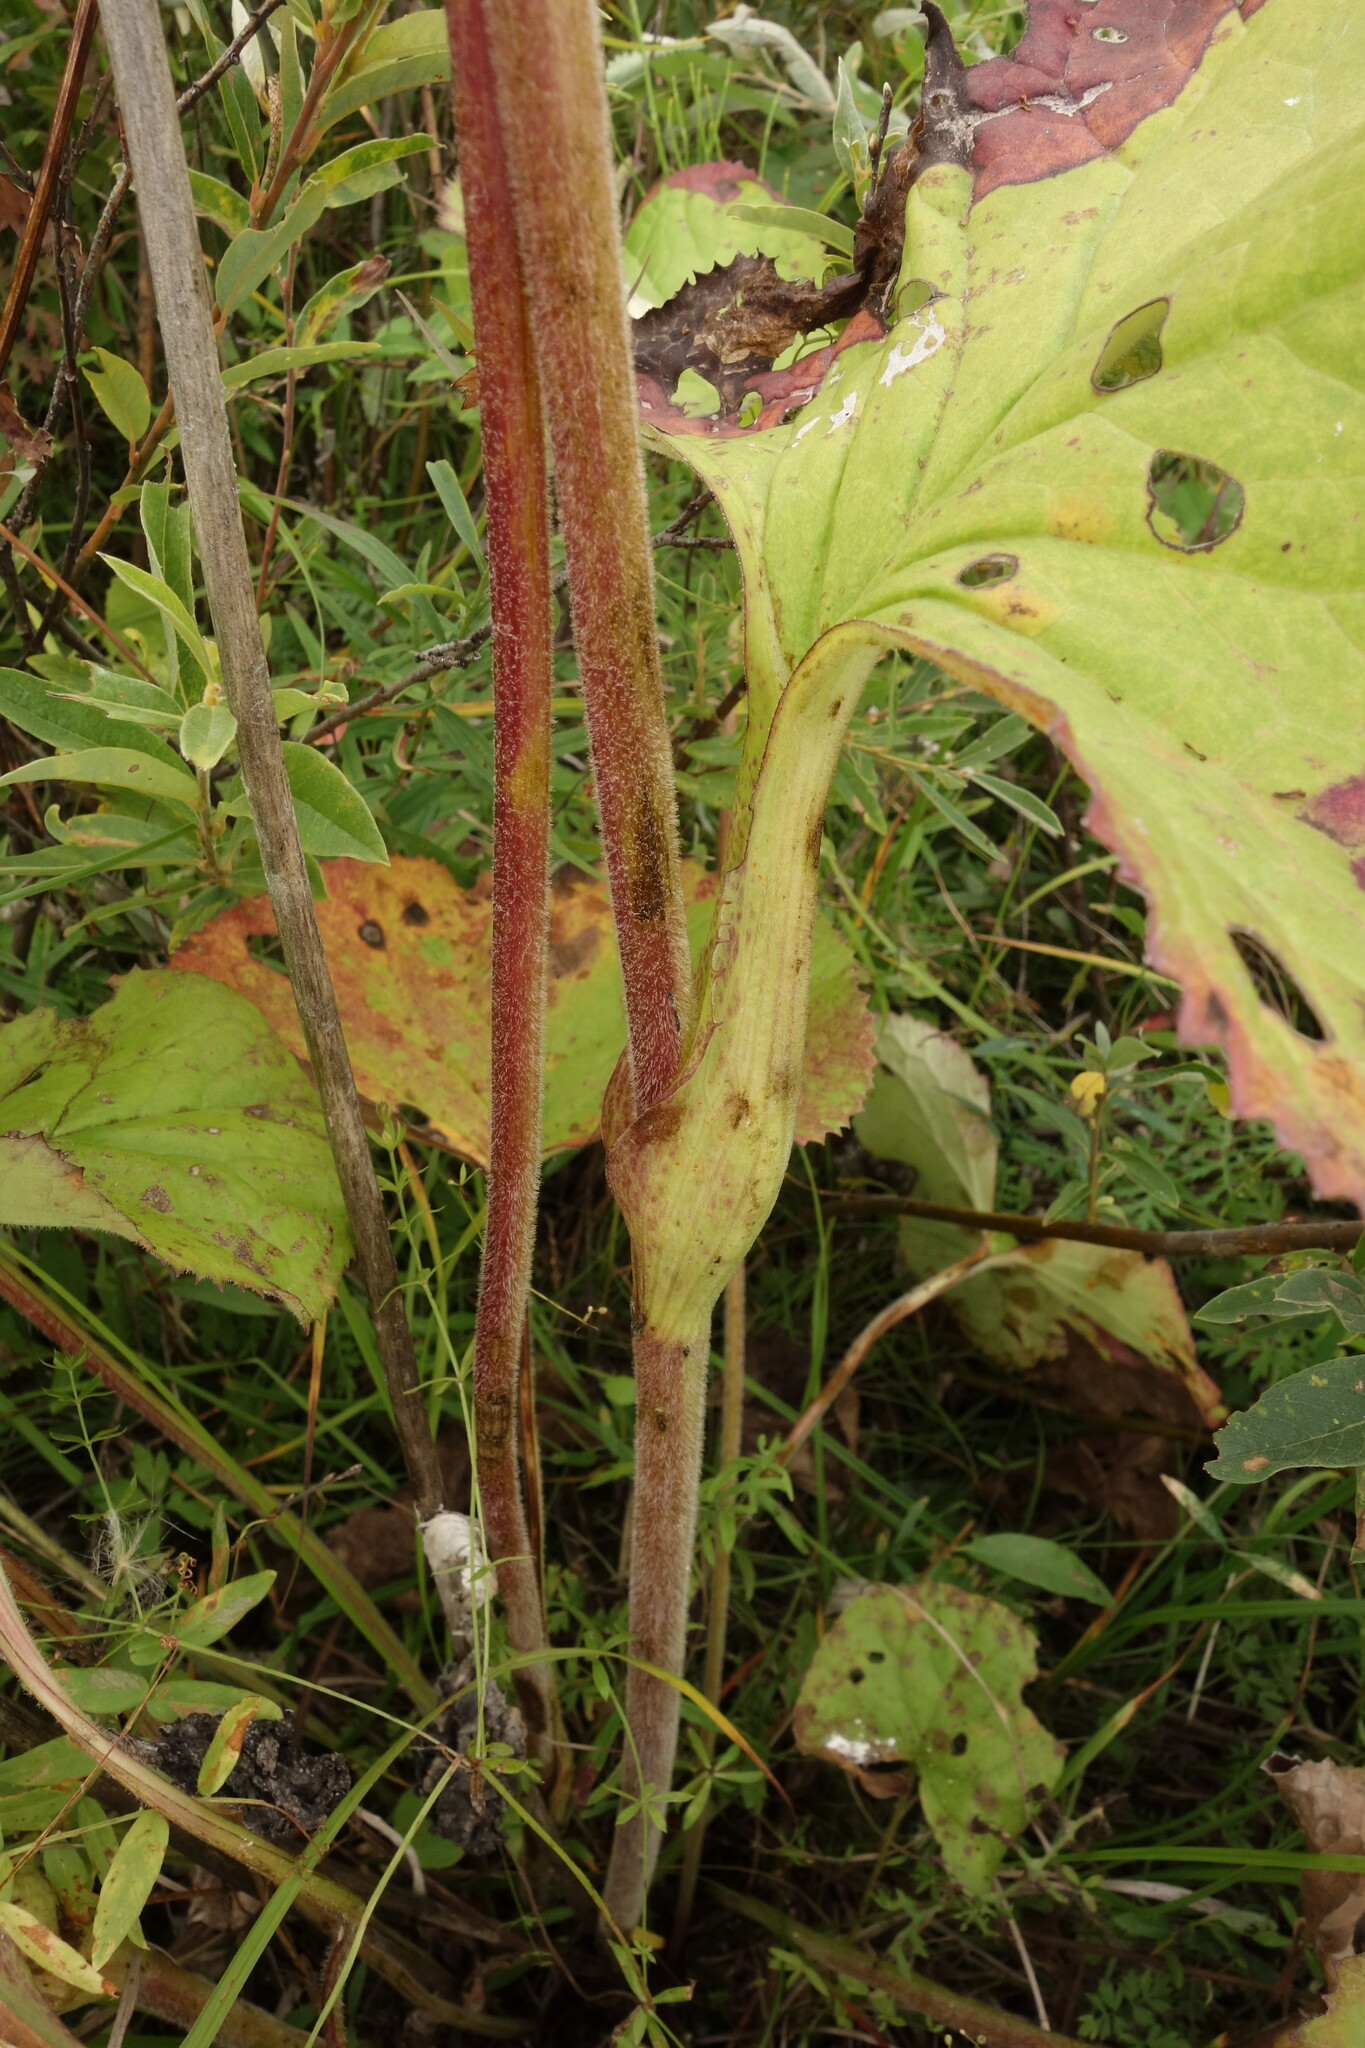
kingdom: Plantae
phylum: Tracheophyta
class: Magnoliopsida
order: Asterales
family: Asteraceae
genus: Ligularia
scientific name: Ligularia sibirica
